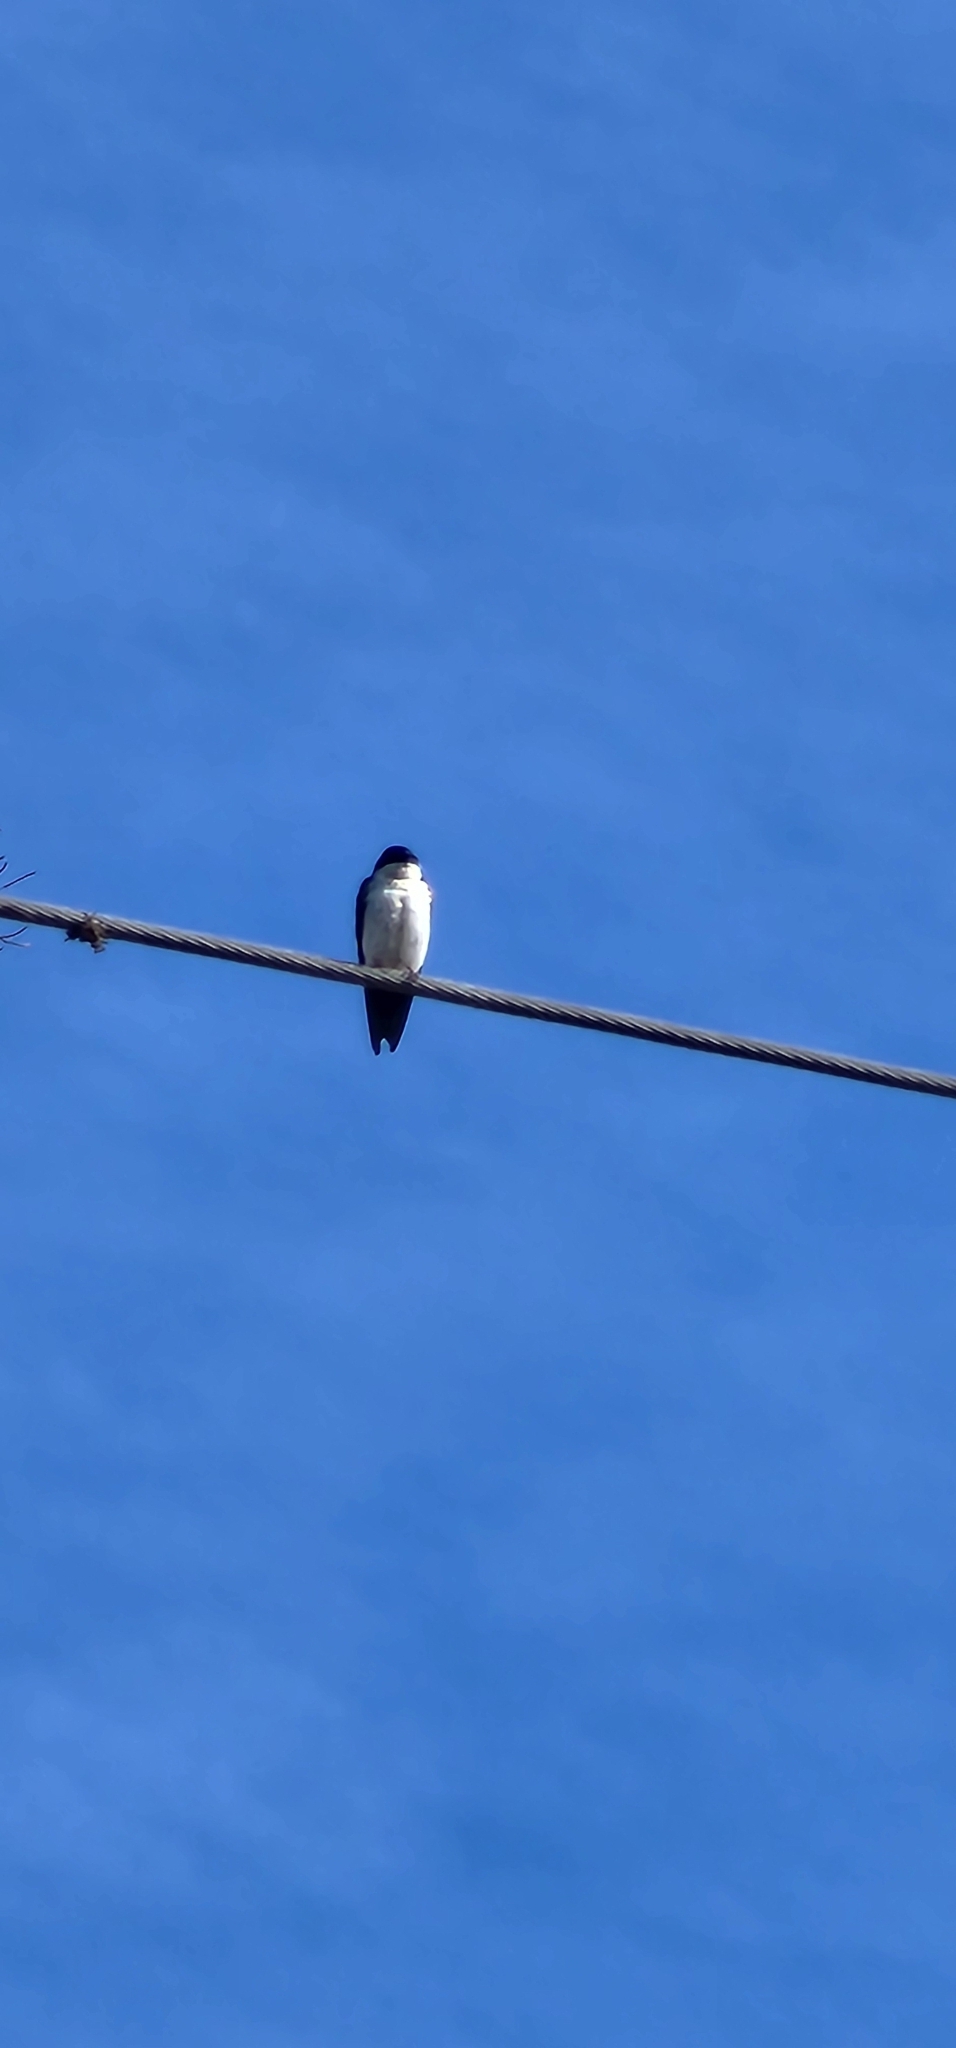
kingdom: Animalia
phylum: Chordata
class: Aves
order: Passeriformes
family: Hirundinidae
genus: Notiochelidon
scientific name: Notiochelidon cyanoleuca
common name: Blue-and-white swallow
